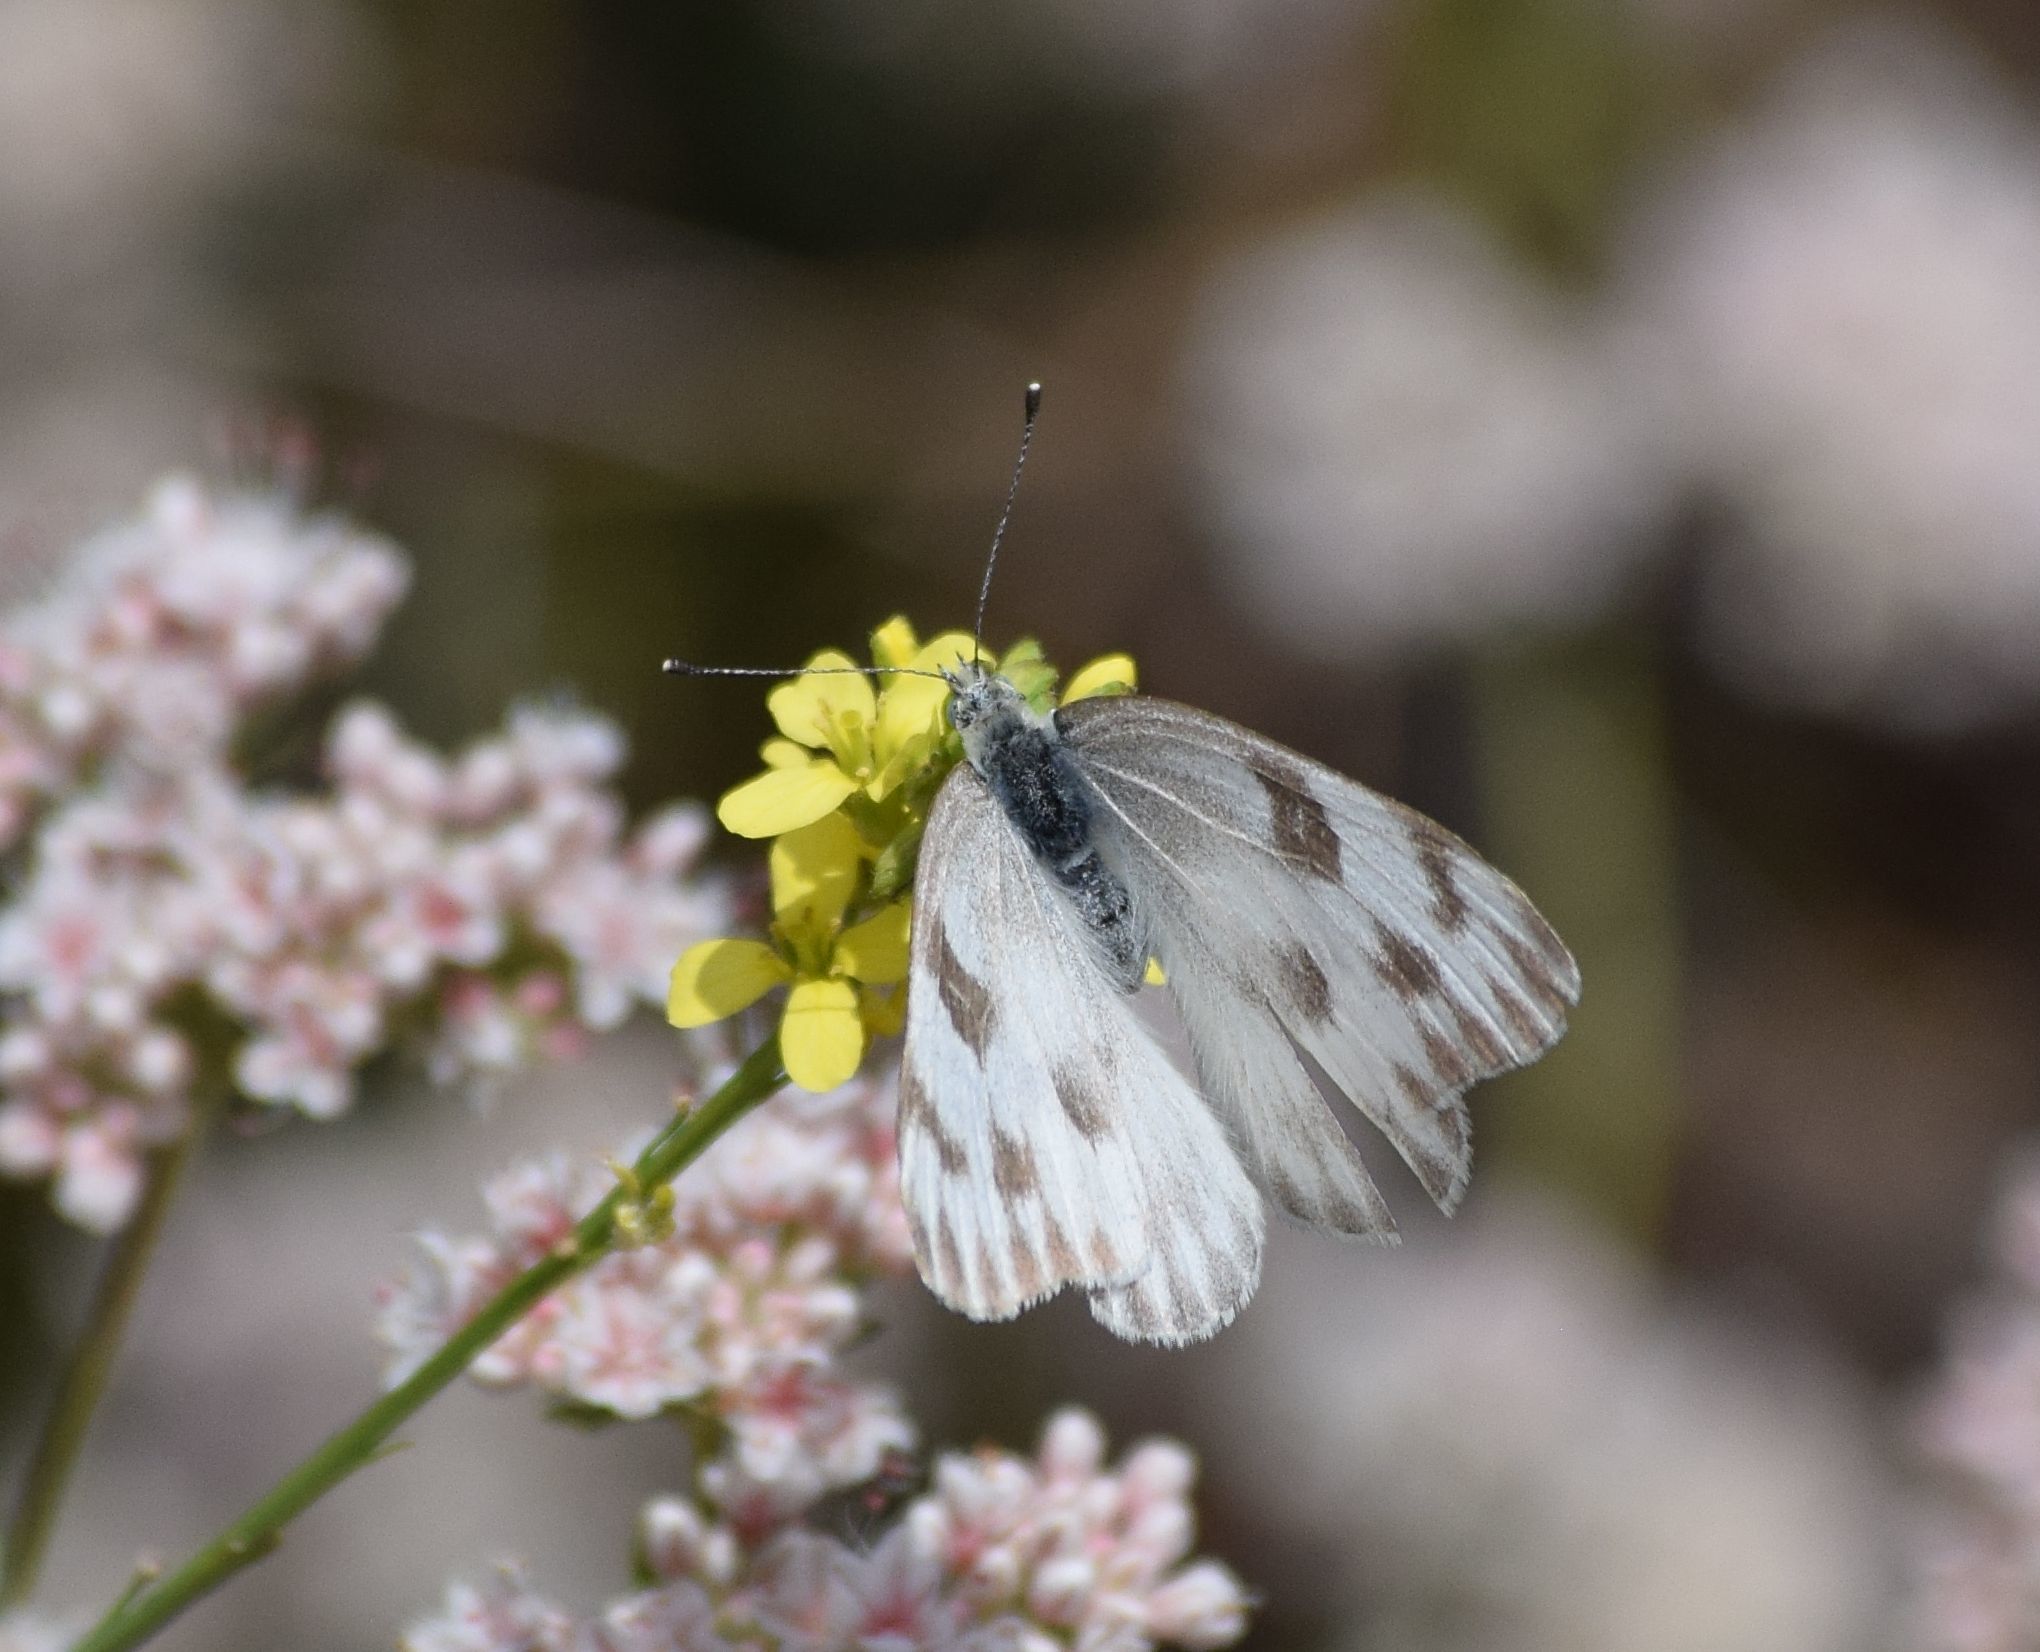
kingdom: Animalia
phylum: Arthropoda
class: Insecta
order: Lepidoptera
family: Pieridae
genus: Pontia
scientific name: Pontia protodice
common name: Checkered white
